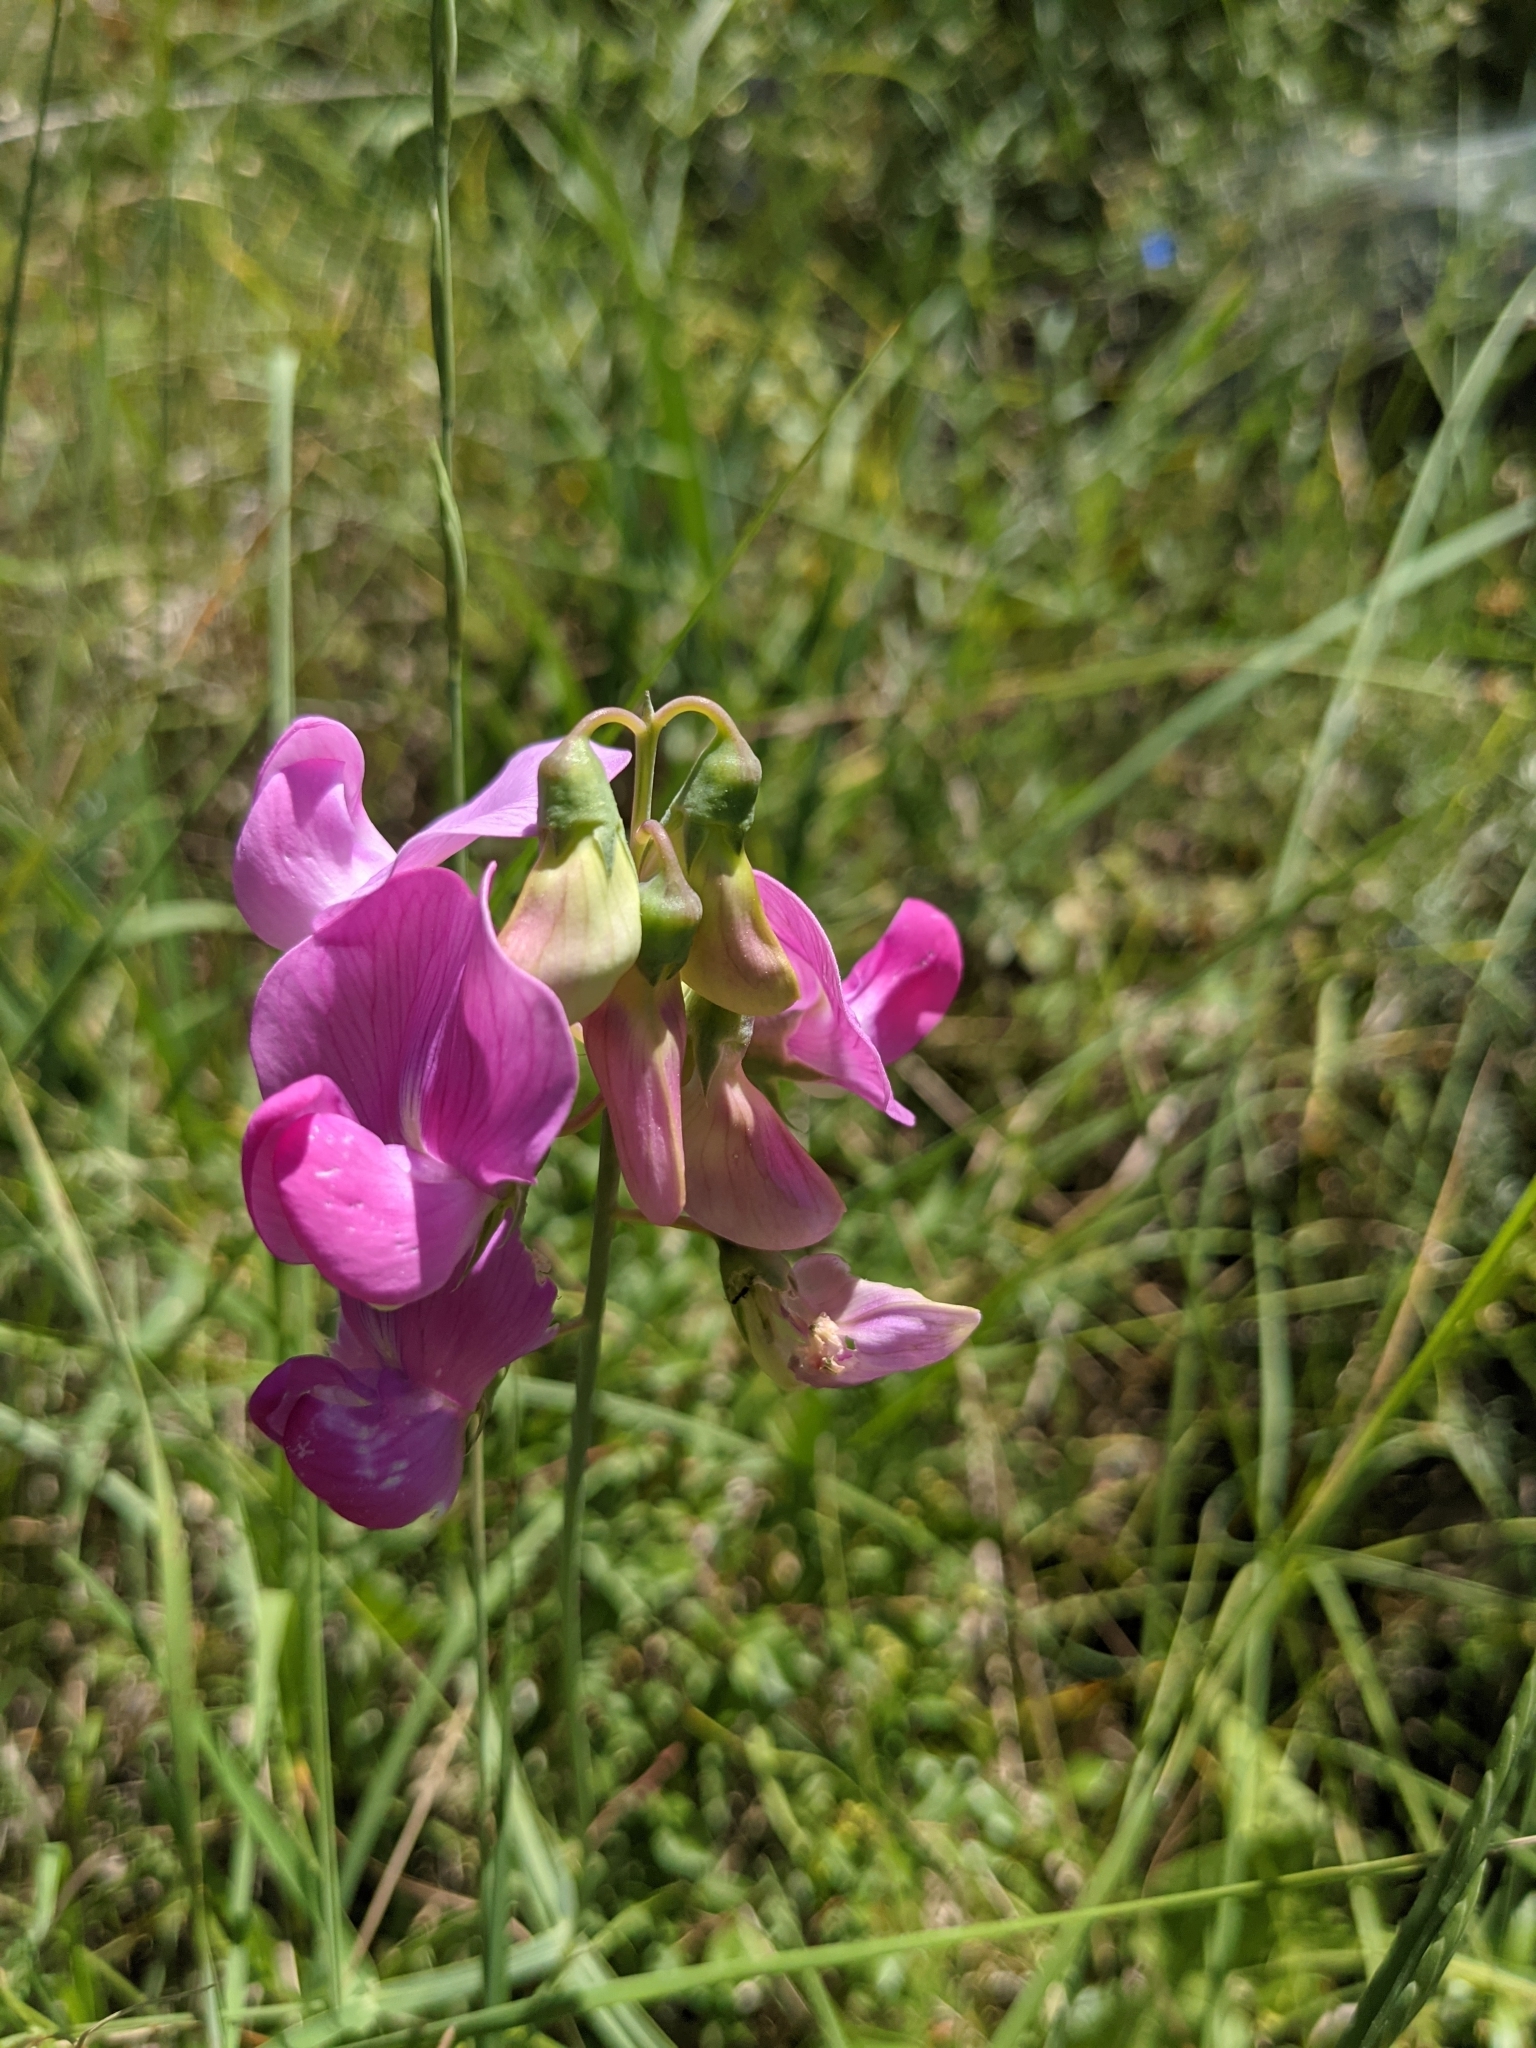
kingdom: Plantae
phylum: Tracheophyta
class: Magnoliopsida
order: Fabales
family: Fabaceae
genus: Lathyrus
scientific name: Lathyrus latifolius
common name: Perennial pea
